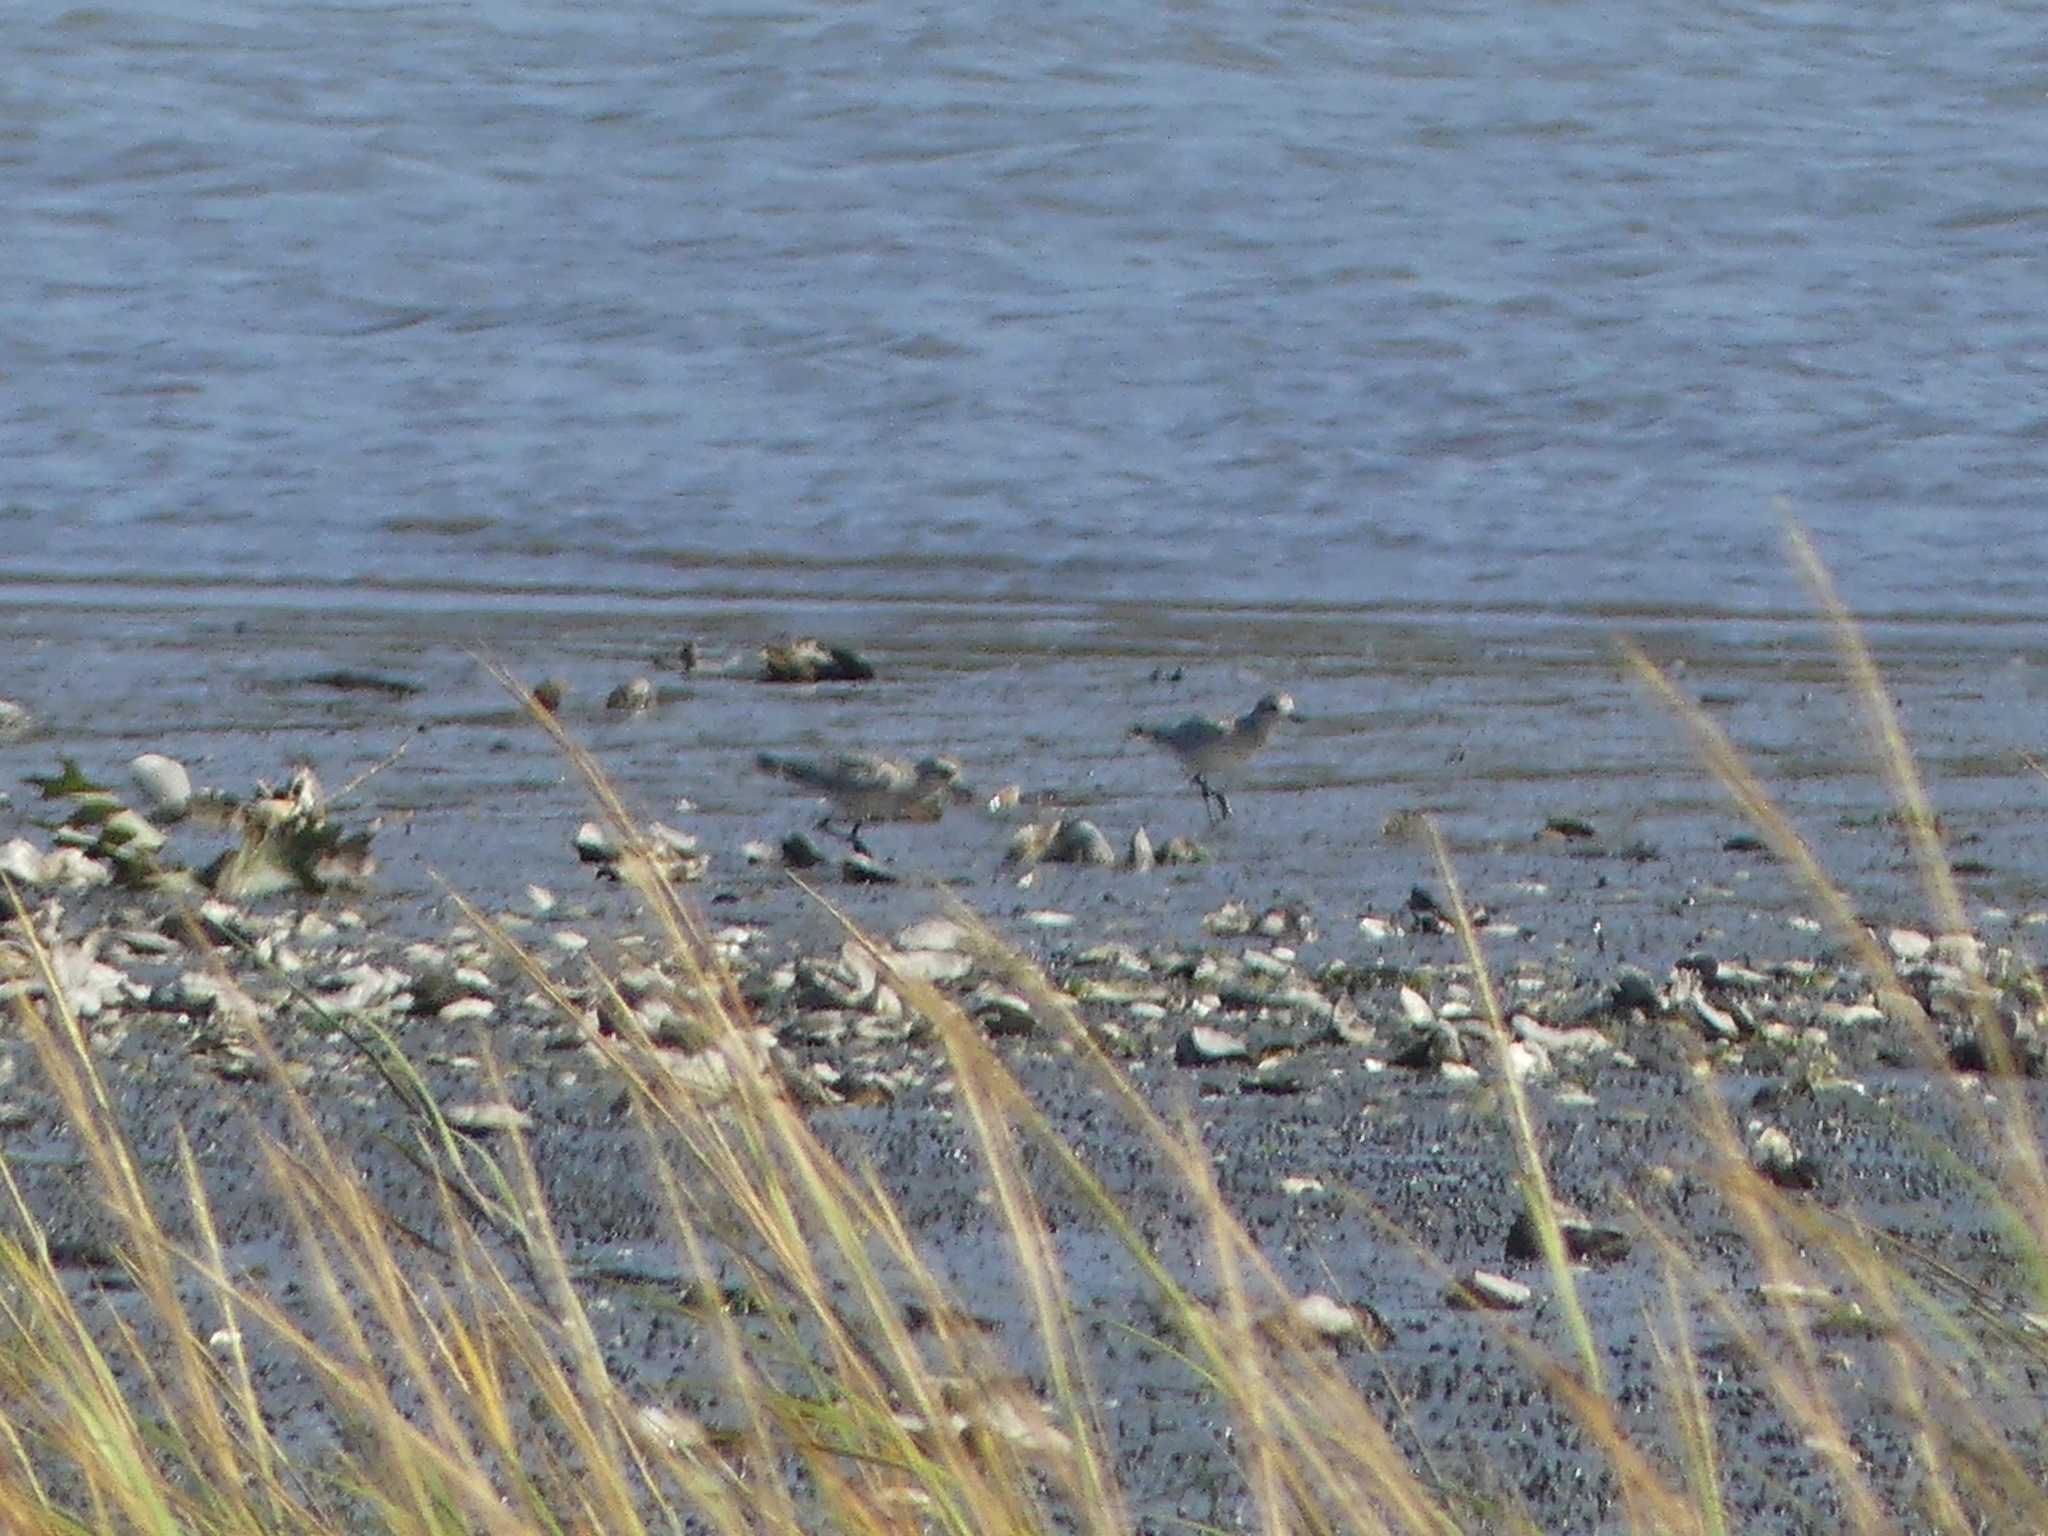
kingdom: Animalia
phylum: Chordata
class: Aves
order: Charadriiformes
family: Charadriidae
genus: Pluvialis
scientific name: Pluvialis squatarola
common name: Grey plover
